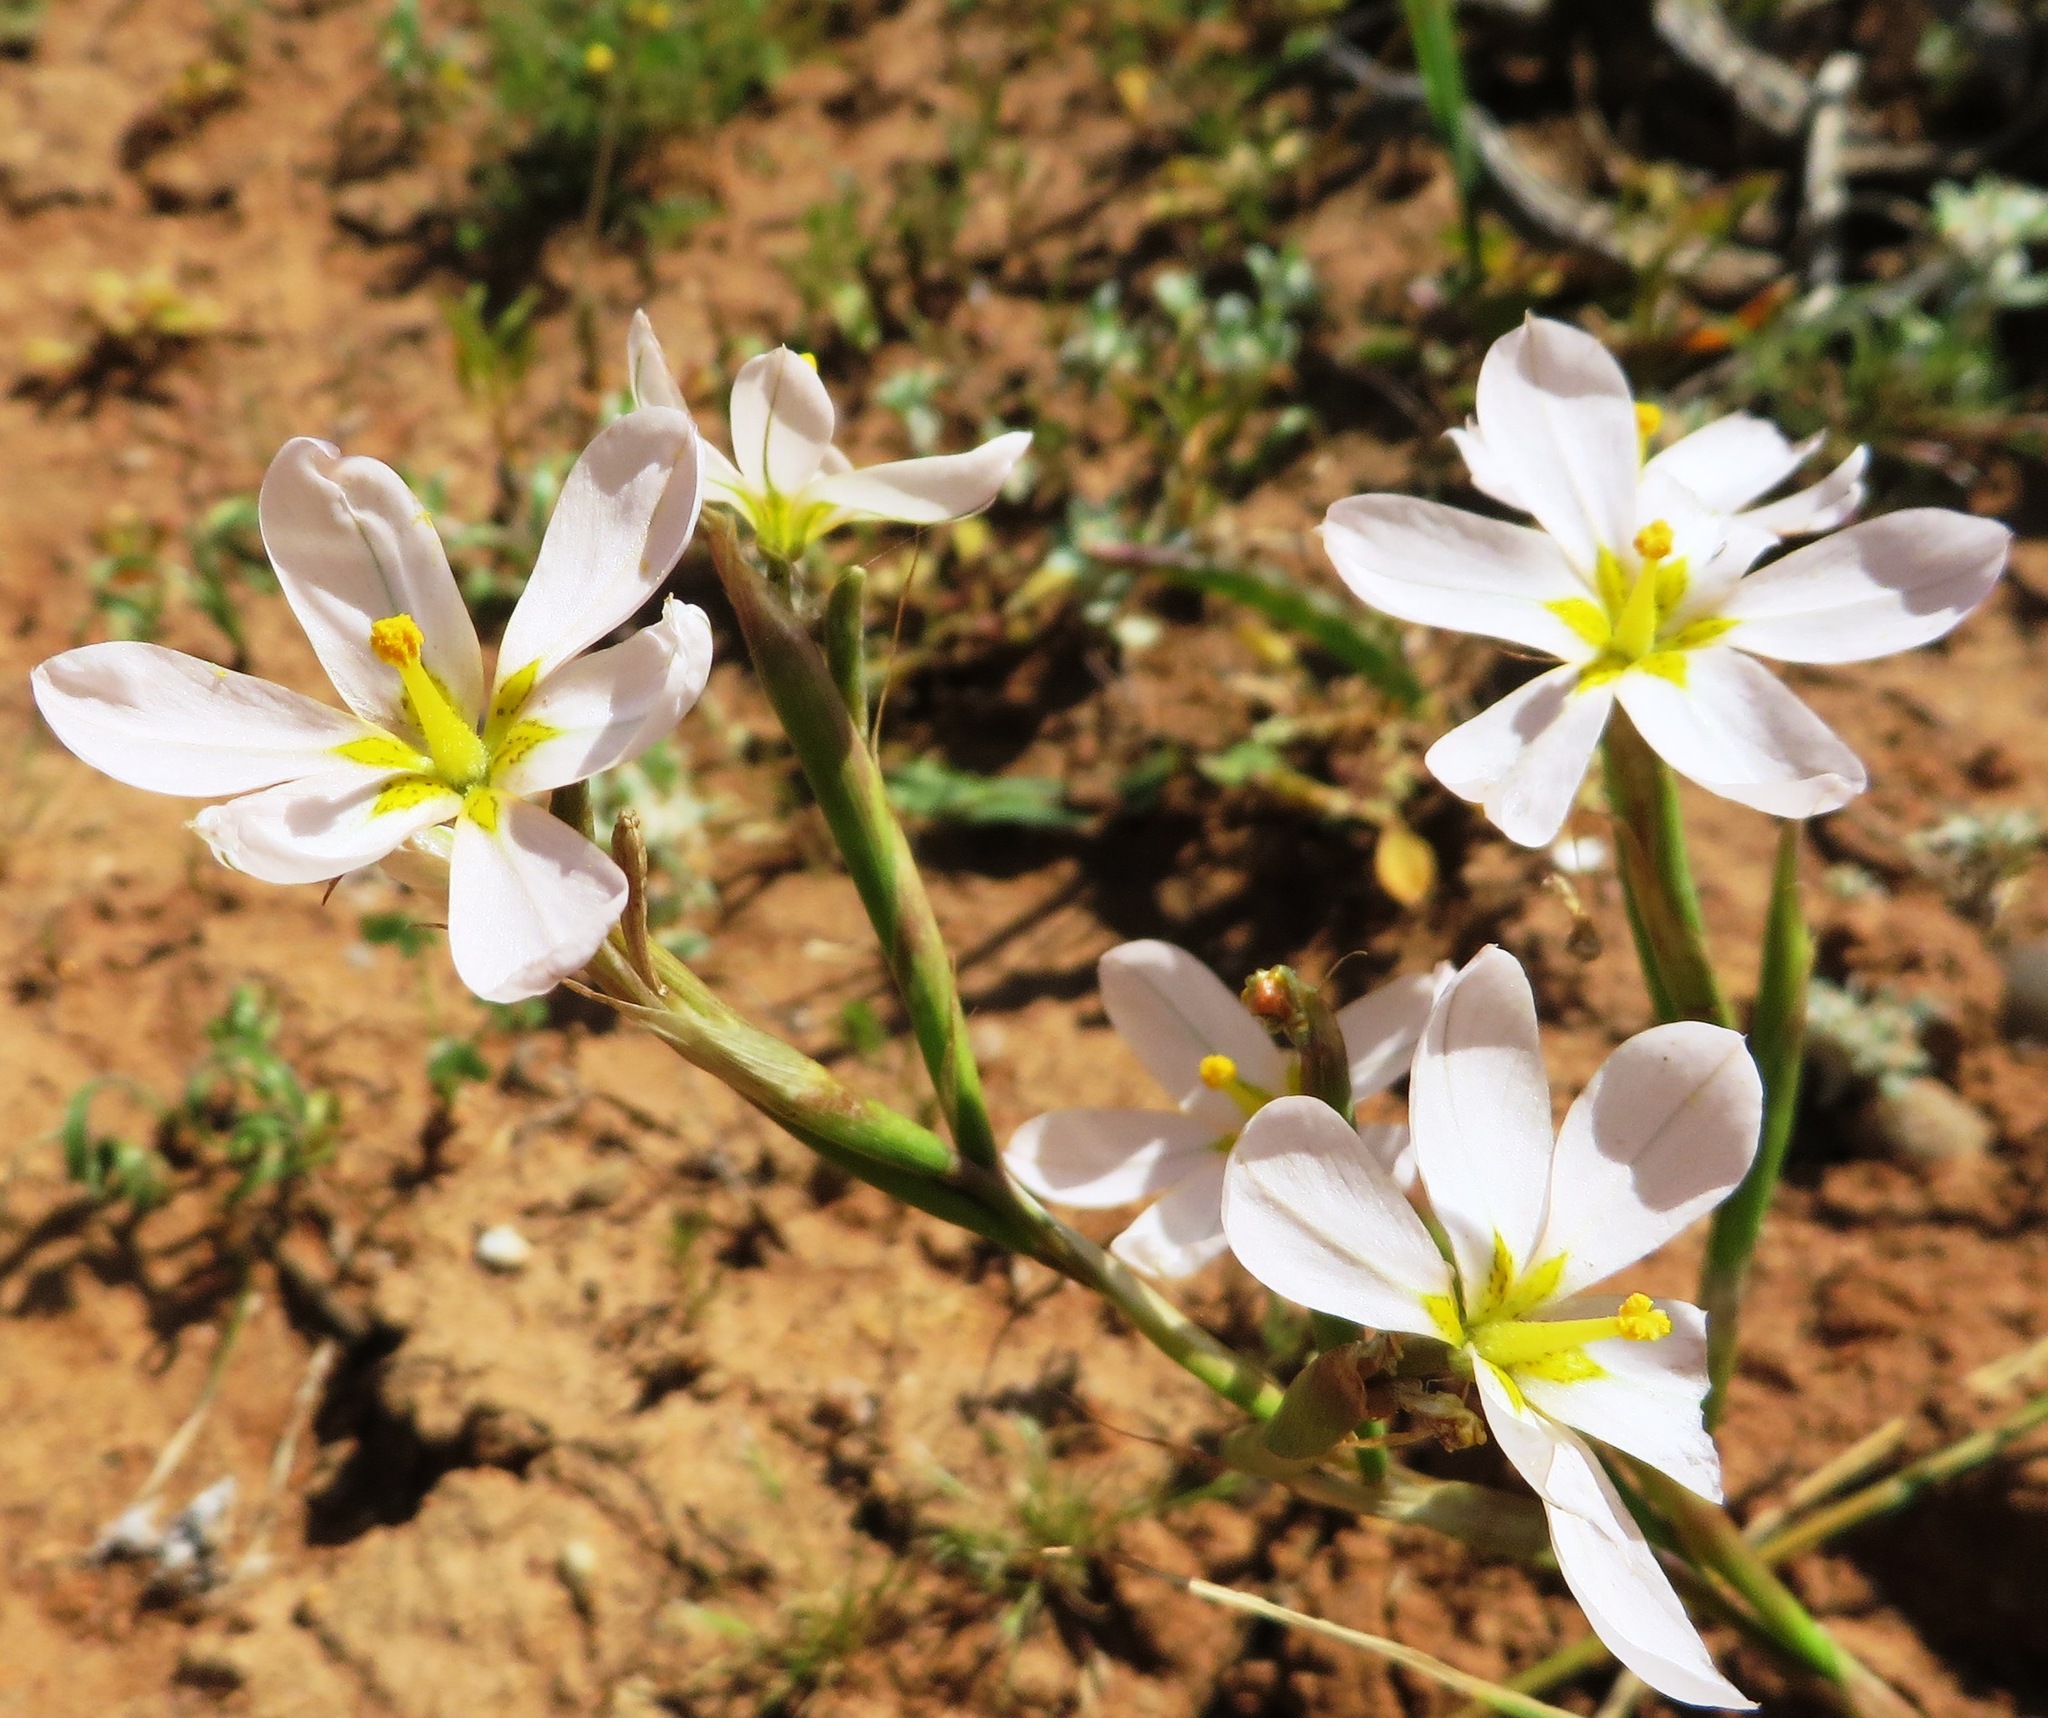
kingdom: Plantae
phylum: Tracheophyta
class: Liliopsida
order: Asparagales
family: Iridaceae
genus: Moraea
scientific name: Moraea miniata
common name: Two-leaf cape-tulip
